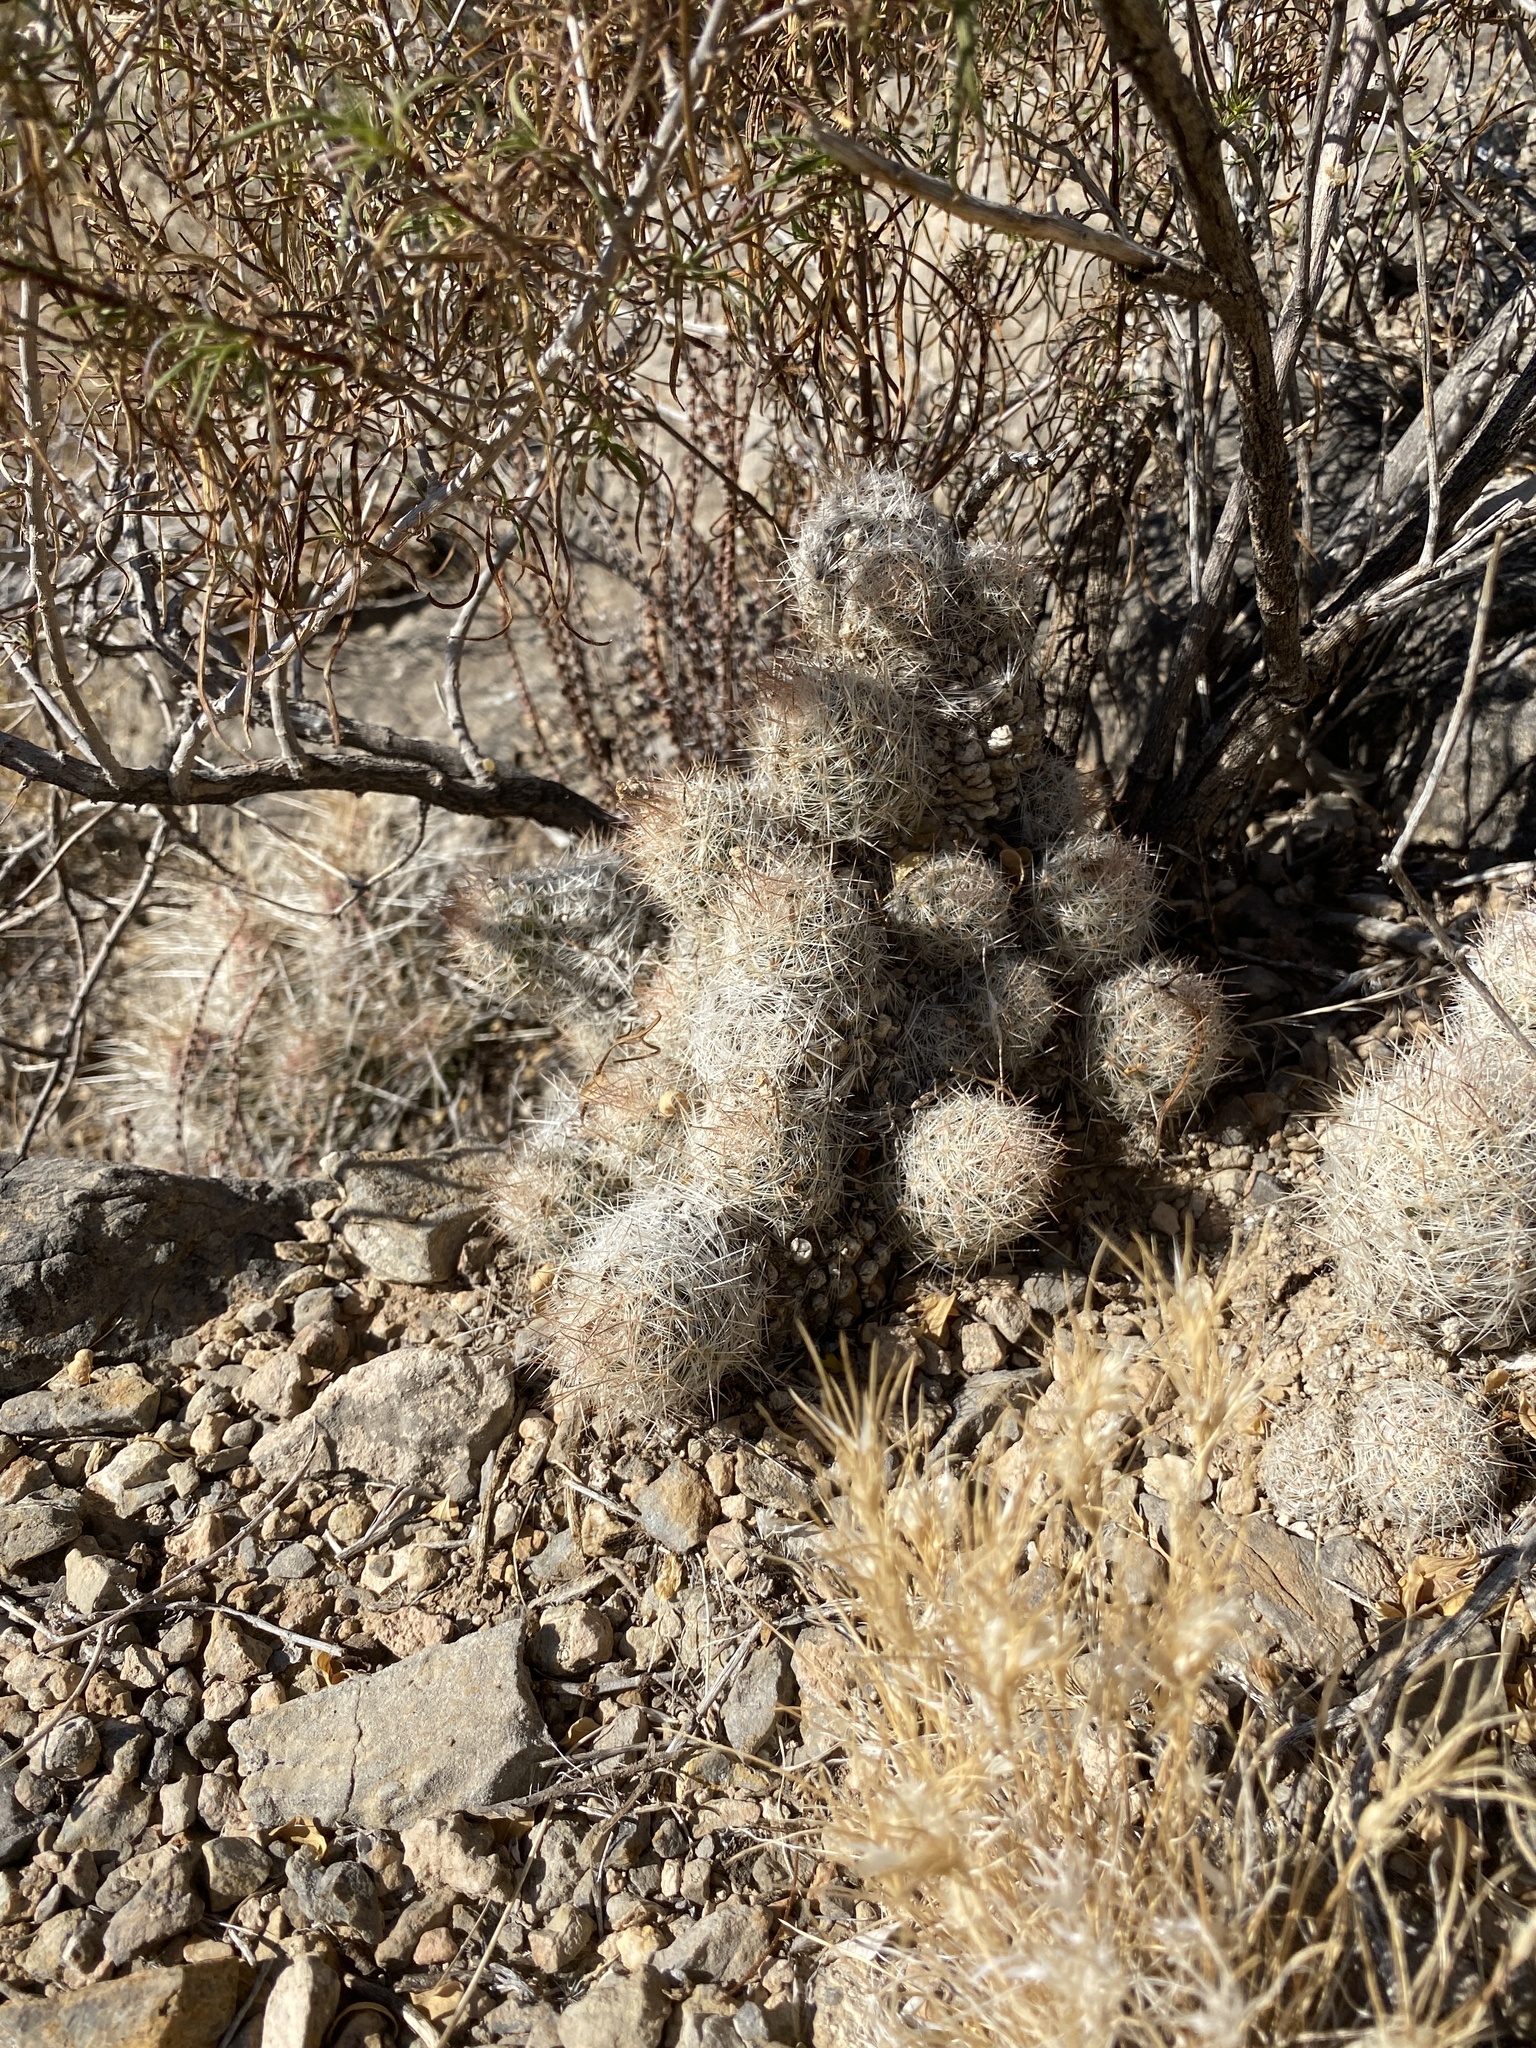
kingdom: Plantae
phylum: Tracheophyta
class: Magnoliopsida
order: Caryophyllales
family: Cactaceae
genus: Pelecyphora
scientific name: Pelecyphora tuberculosa
